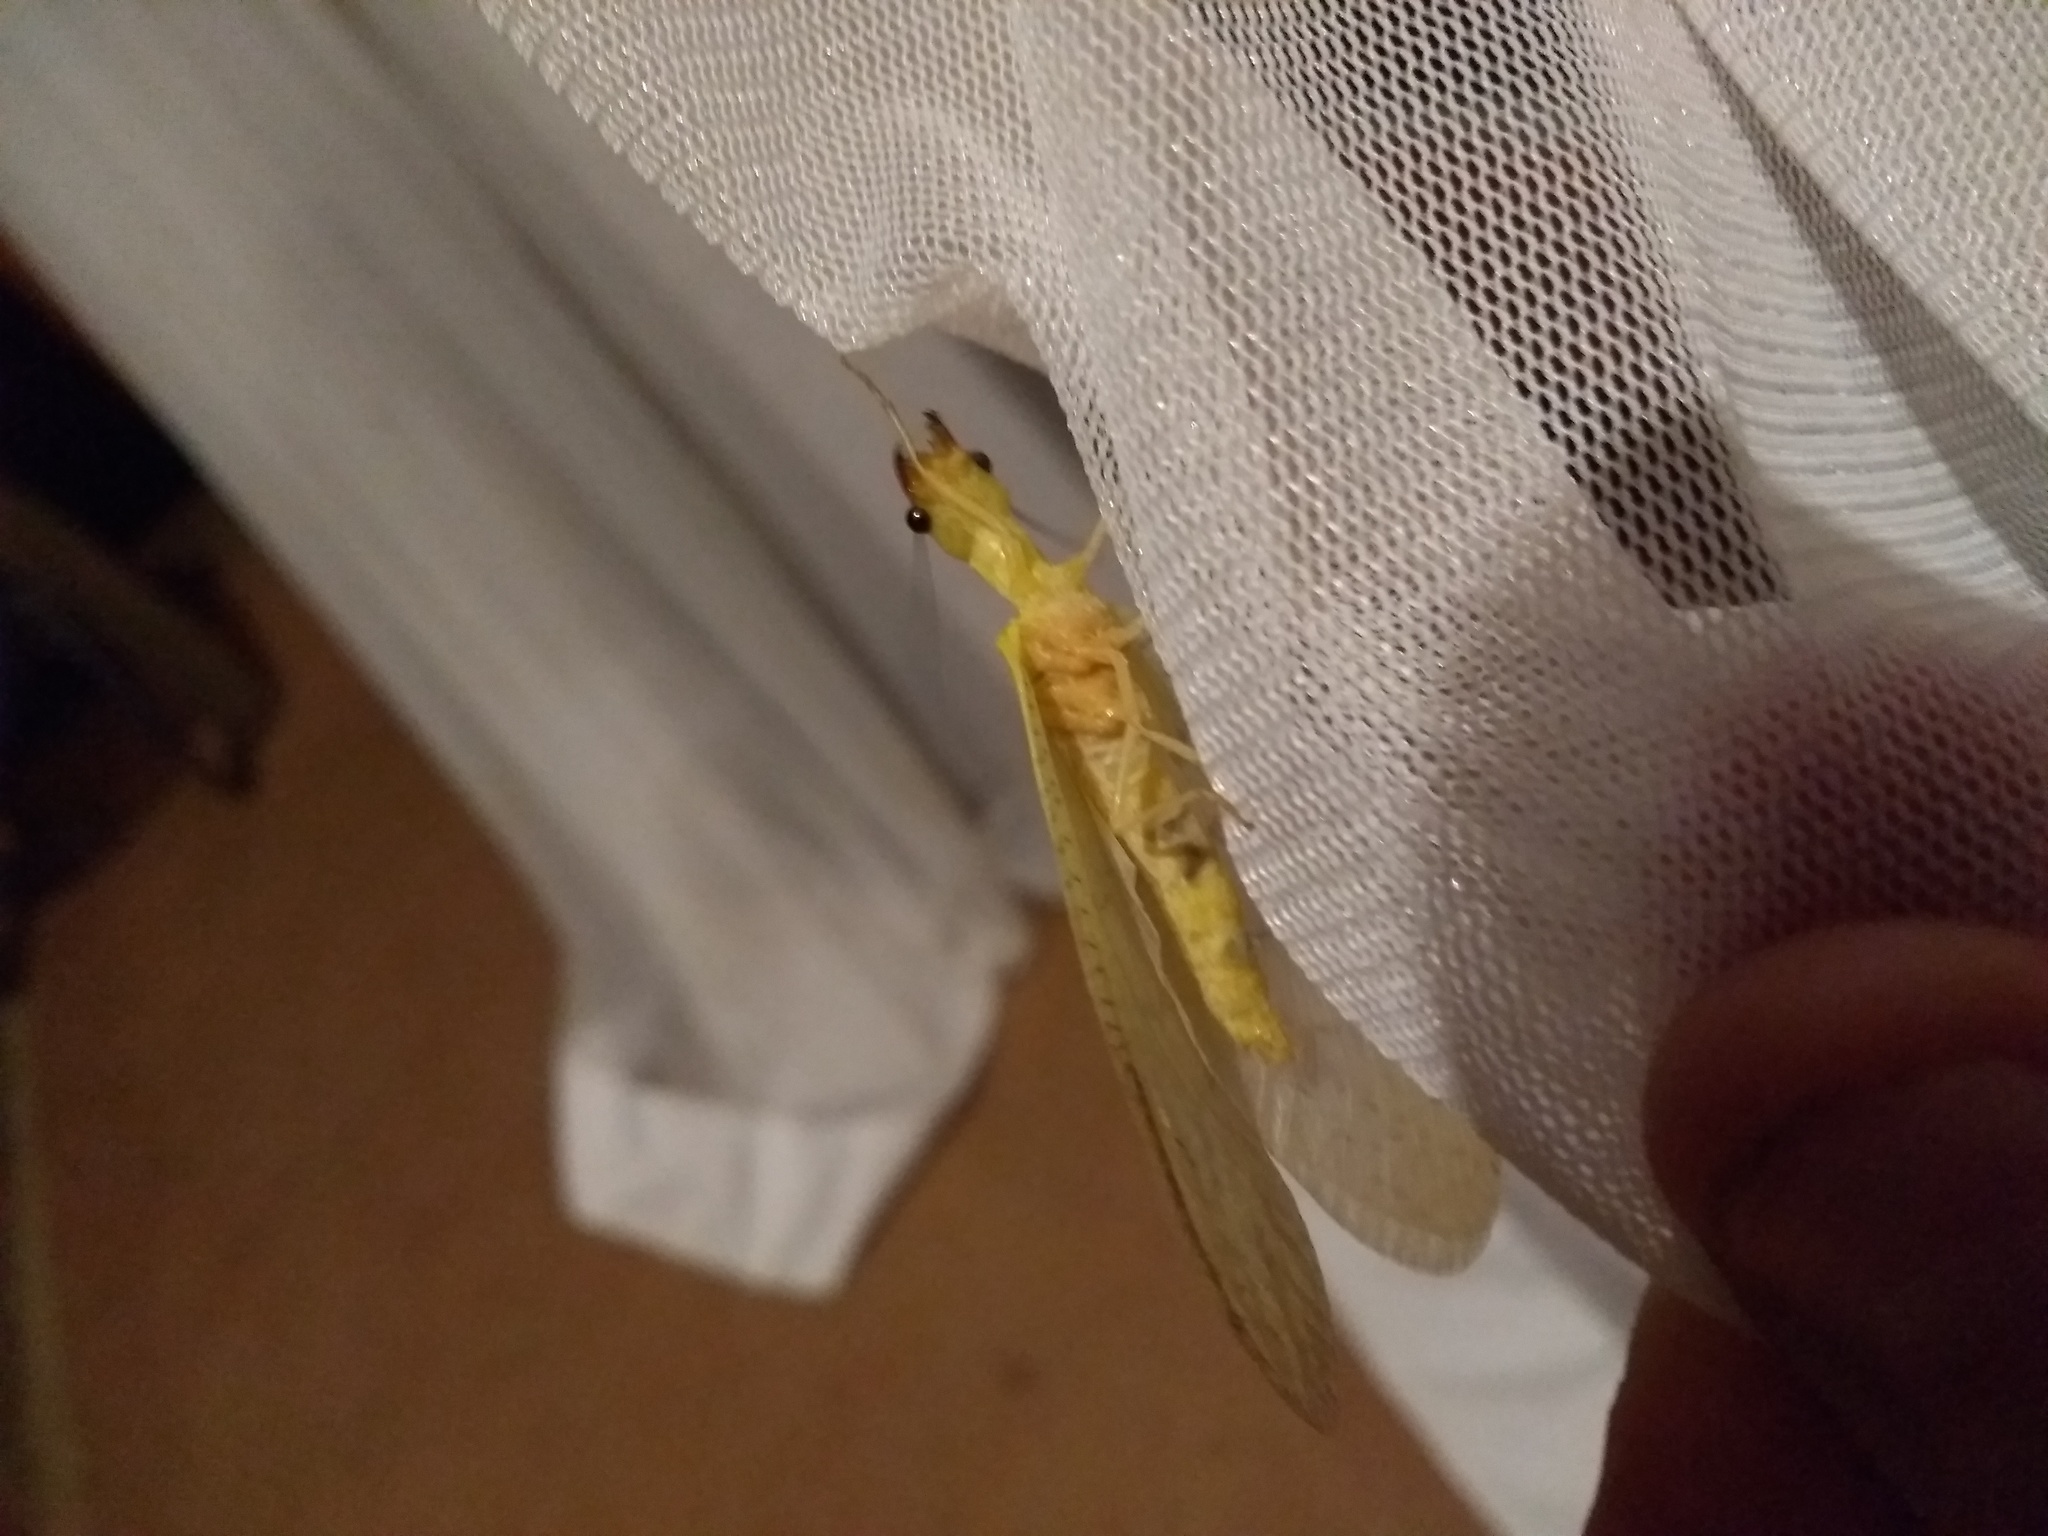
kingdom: Animalia
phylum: Arthropoda
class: Insecta
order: Megaloptera
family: Corydalidae
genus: Chloronia
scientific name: Chloronia corripiens
